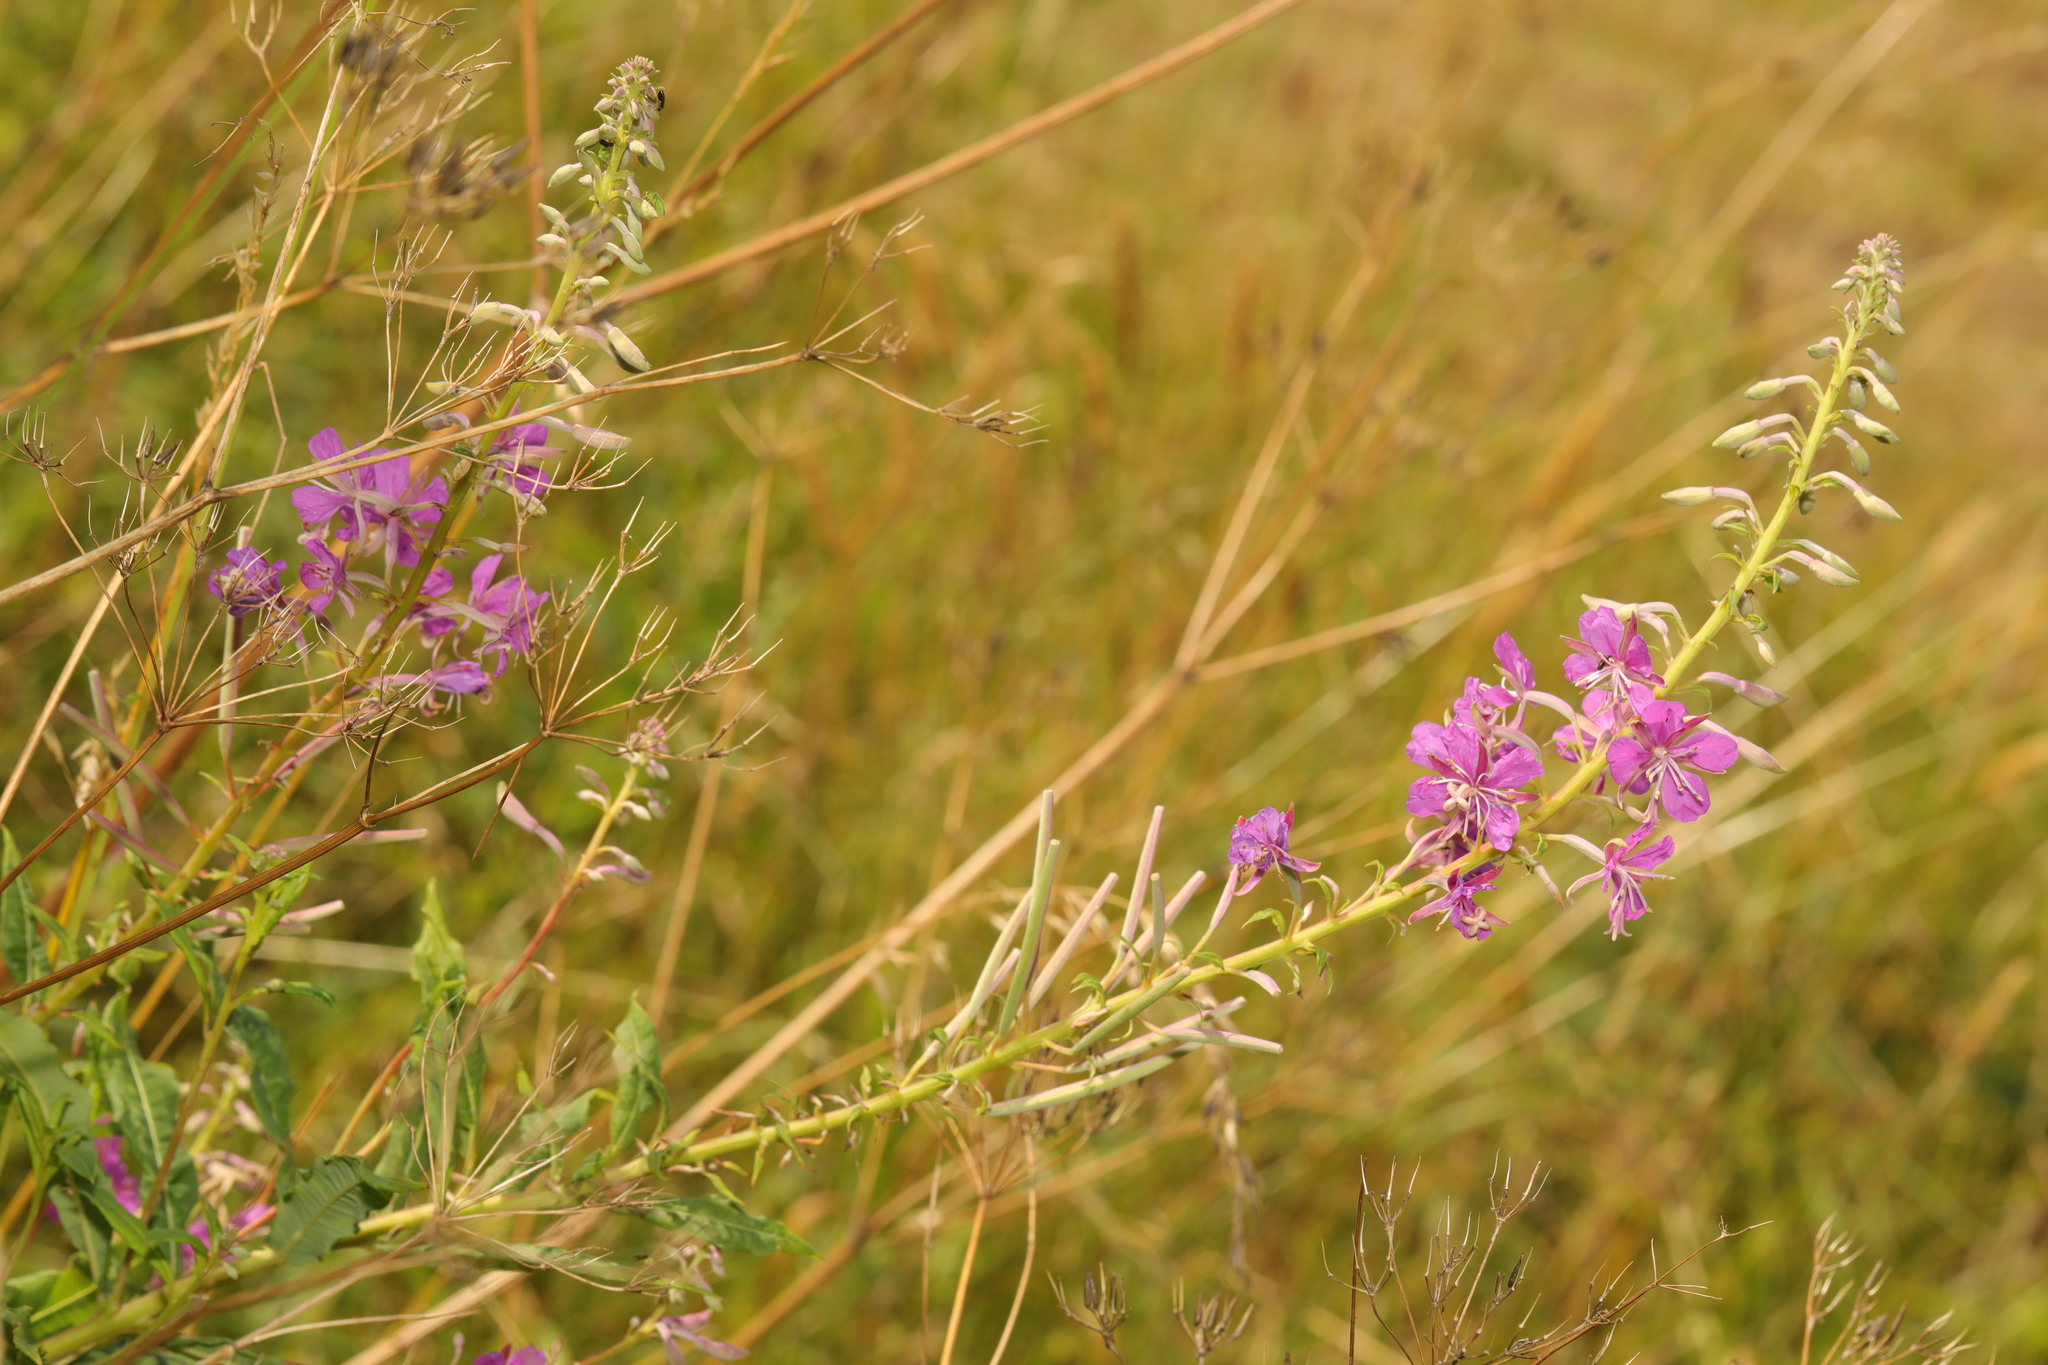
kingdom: Plantae
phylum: Tracheophyta
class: Magnoliopsida
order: Myrtales
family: Onagraceae
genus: Chamaenerion
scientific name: Chamaenerion angustifolium
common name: Fireweed
